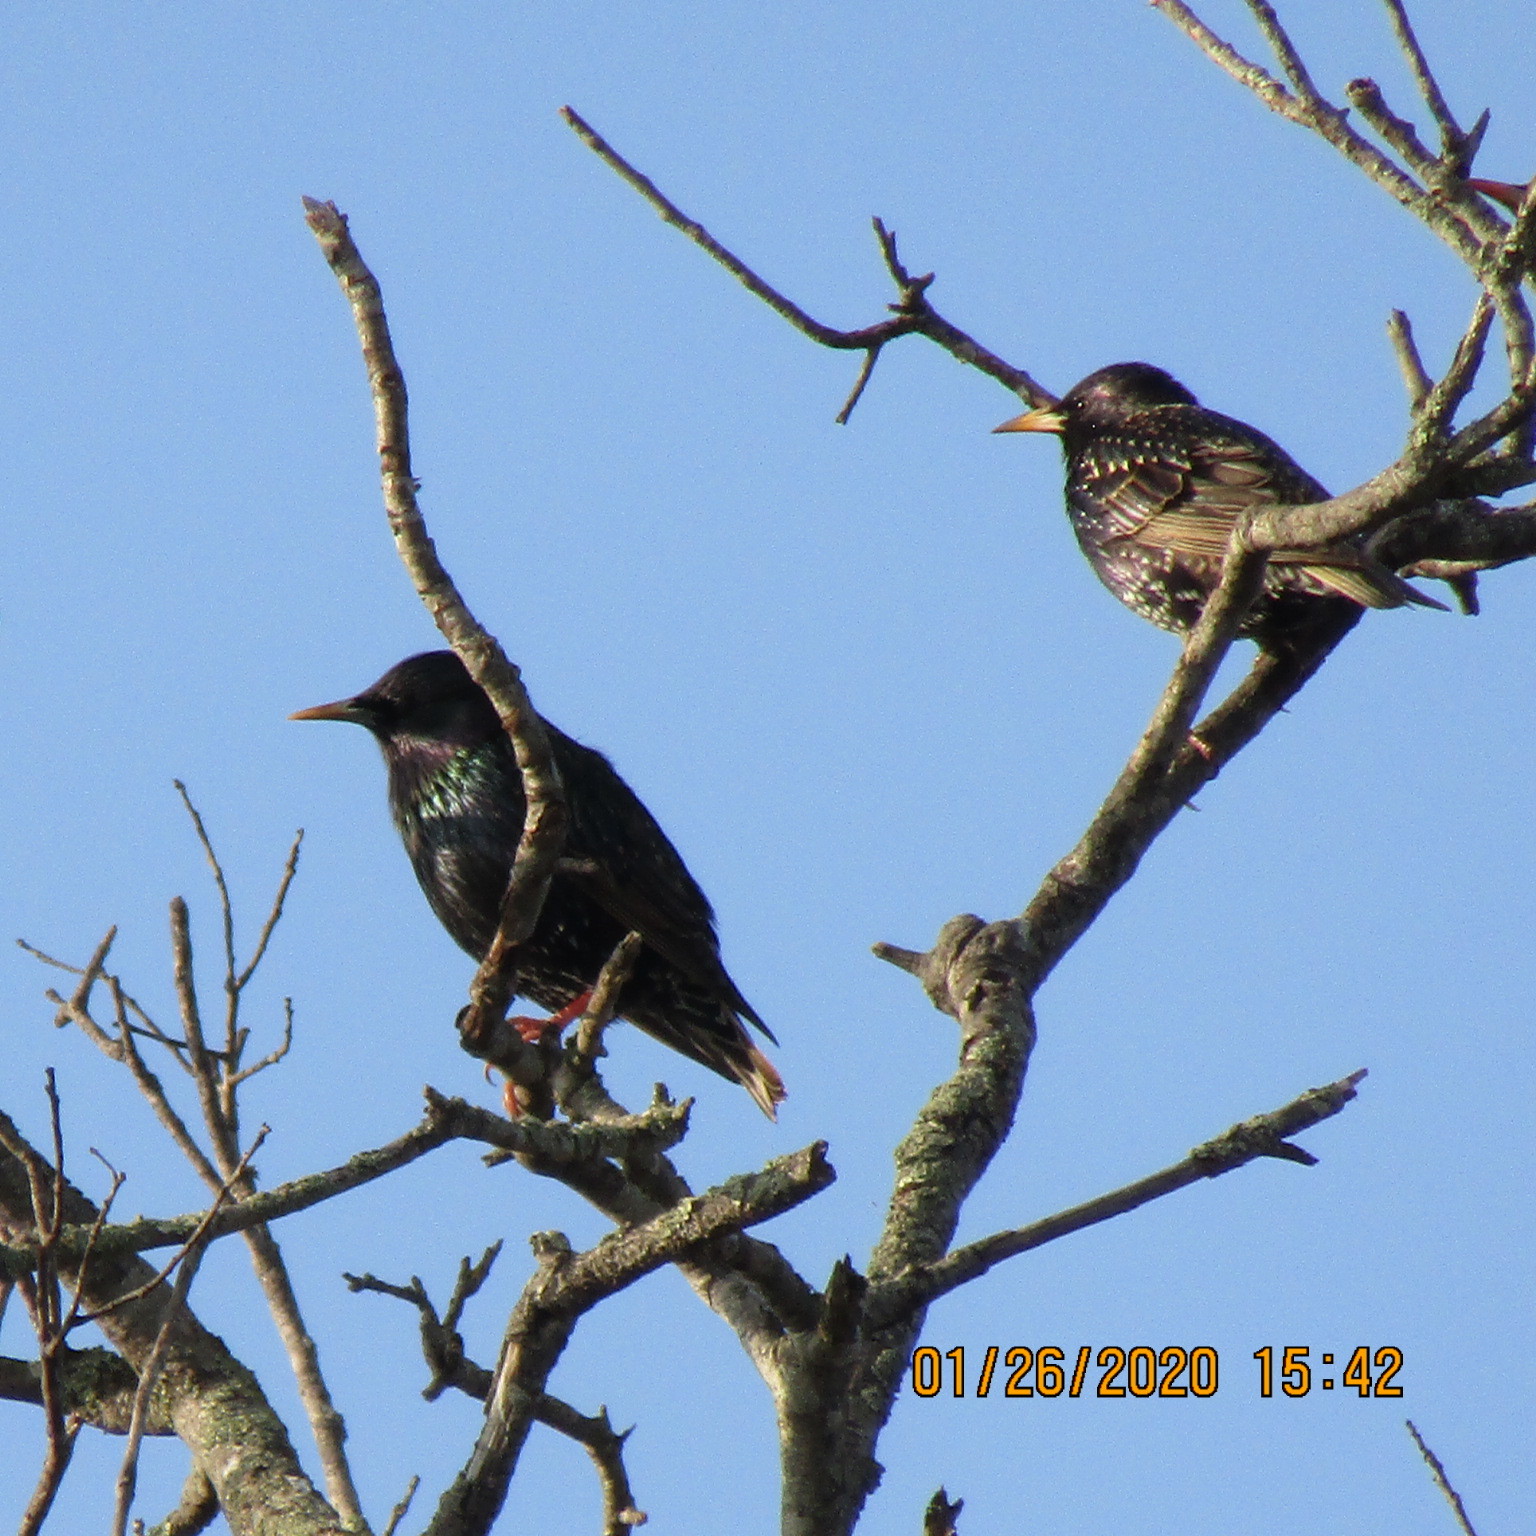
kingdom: Animalia
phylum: Chordata
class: Aves
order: Passeriformes
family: Sturnidae
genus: Sturnus
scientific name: Sturnus vulgaris
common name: Common starling
